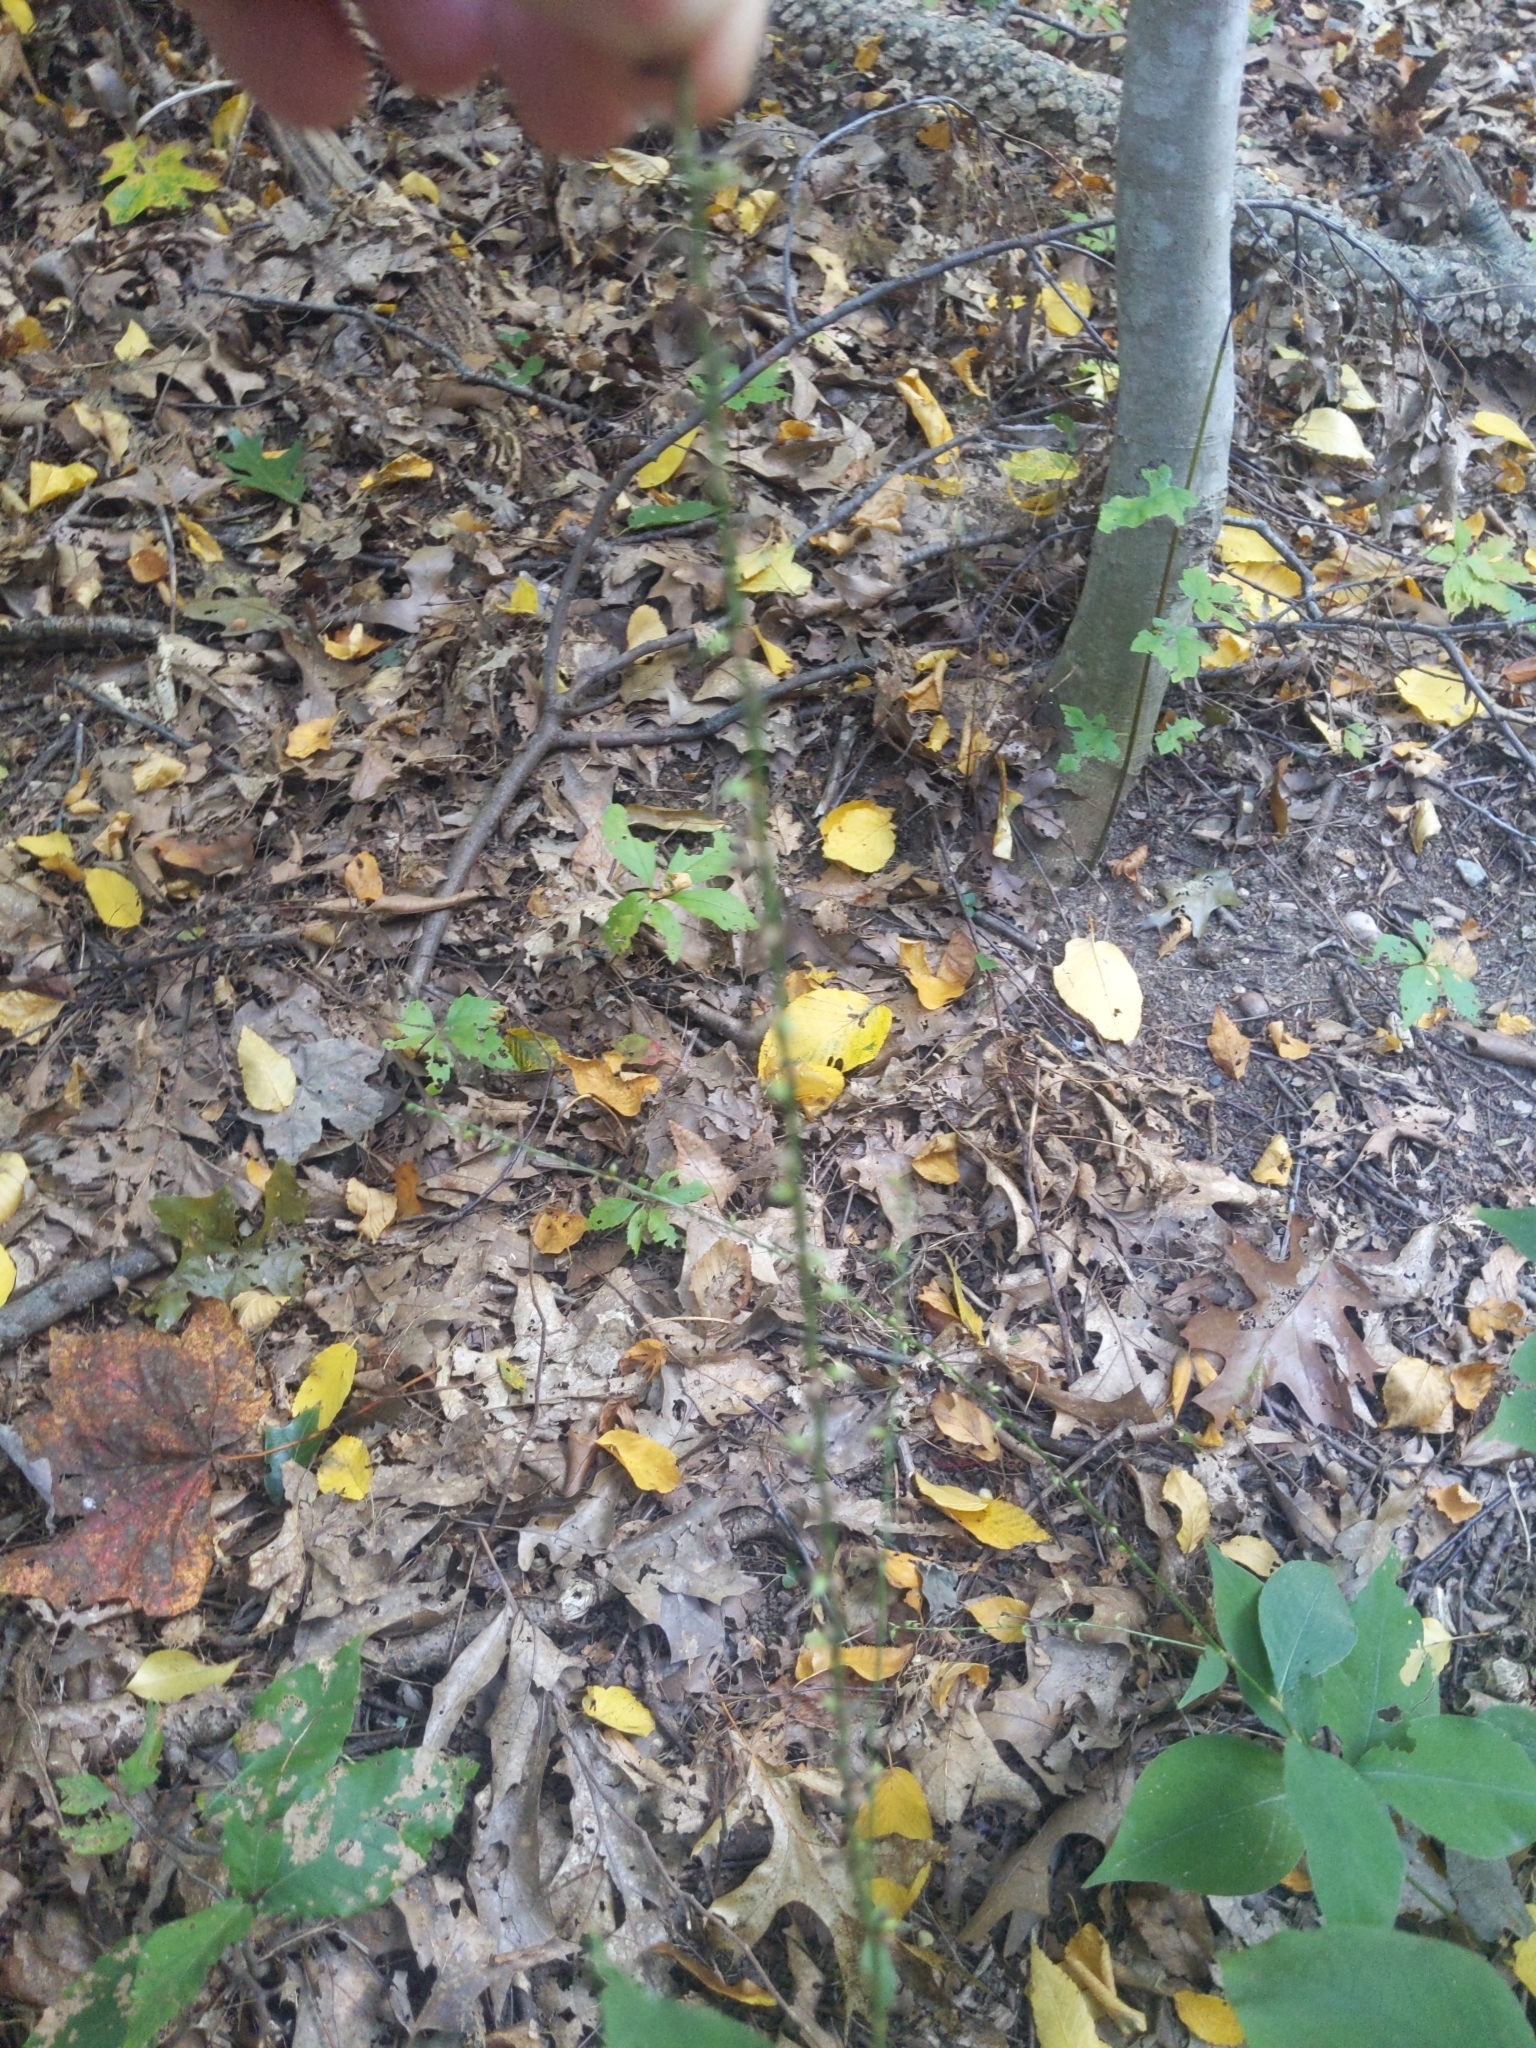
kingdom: Plantae
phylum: Tracheophyta
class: Magnoliopsida
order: Caryophyllales
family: Polygonaceae
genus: Persicaria
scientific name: Persicaria virginiana
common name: Jumpseed
